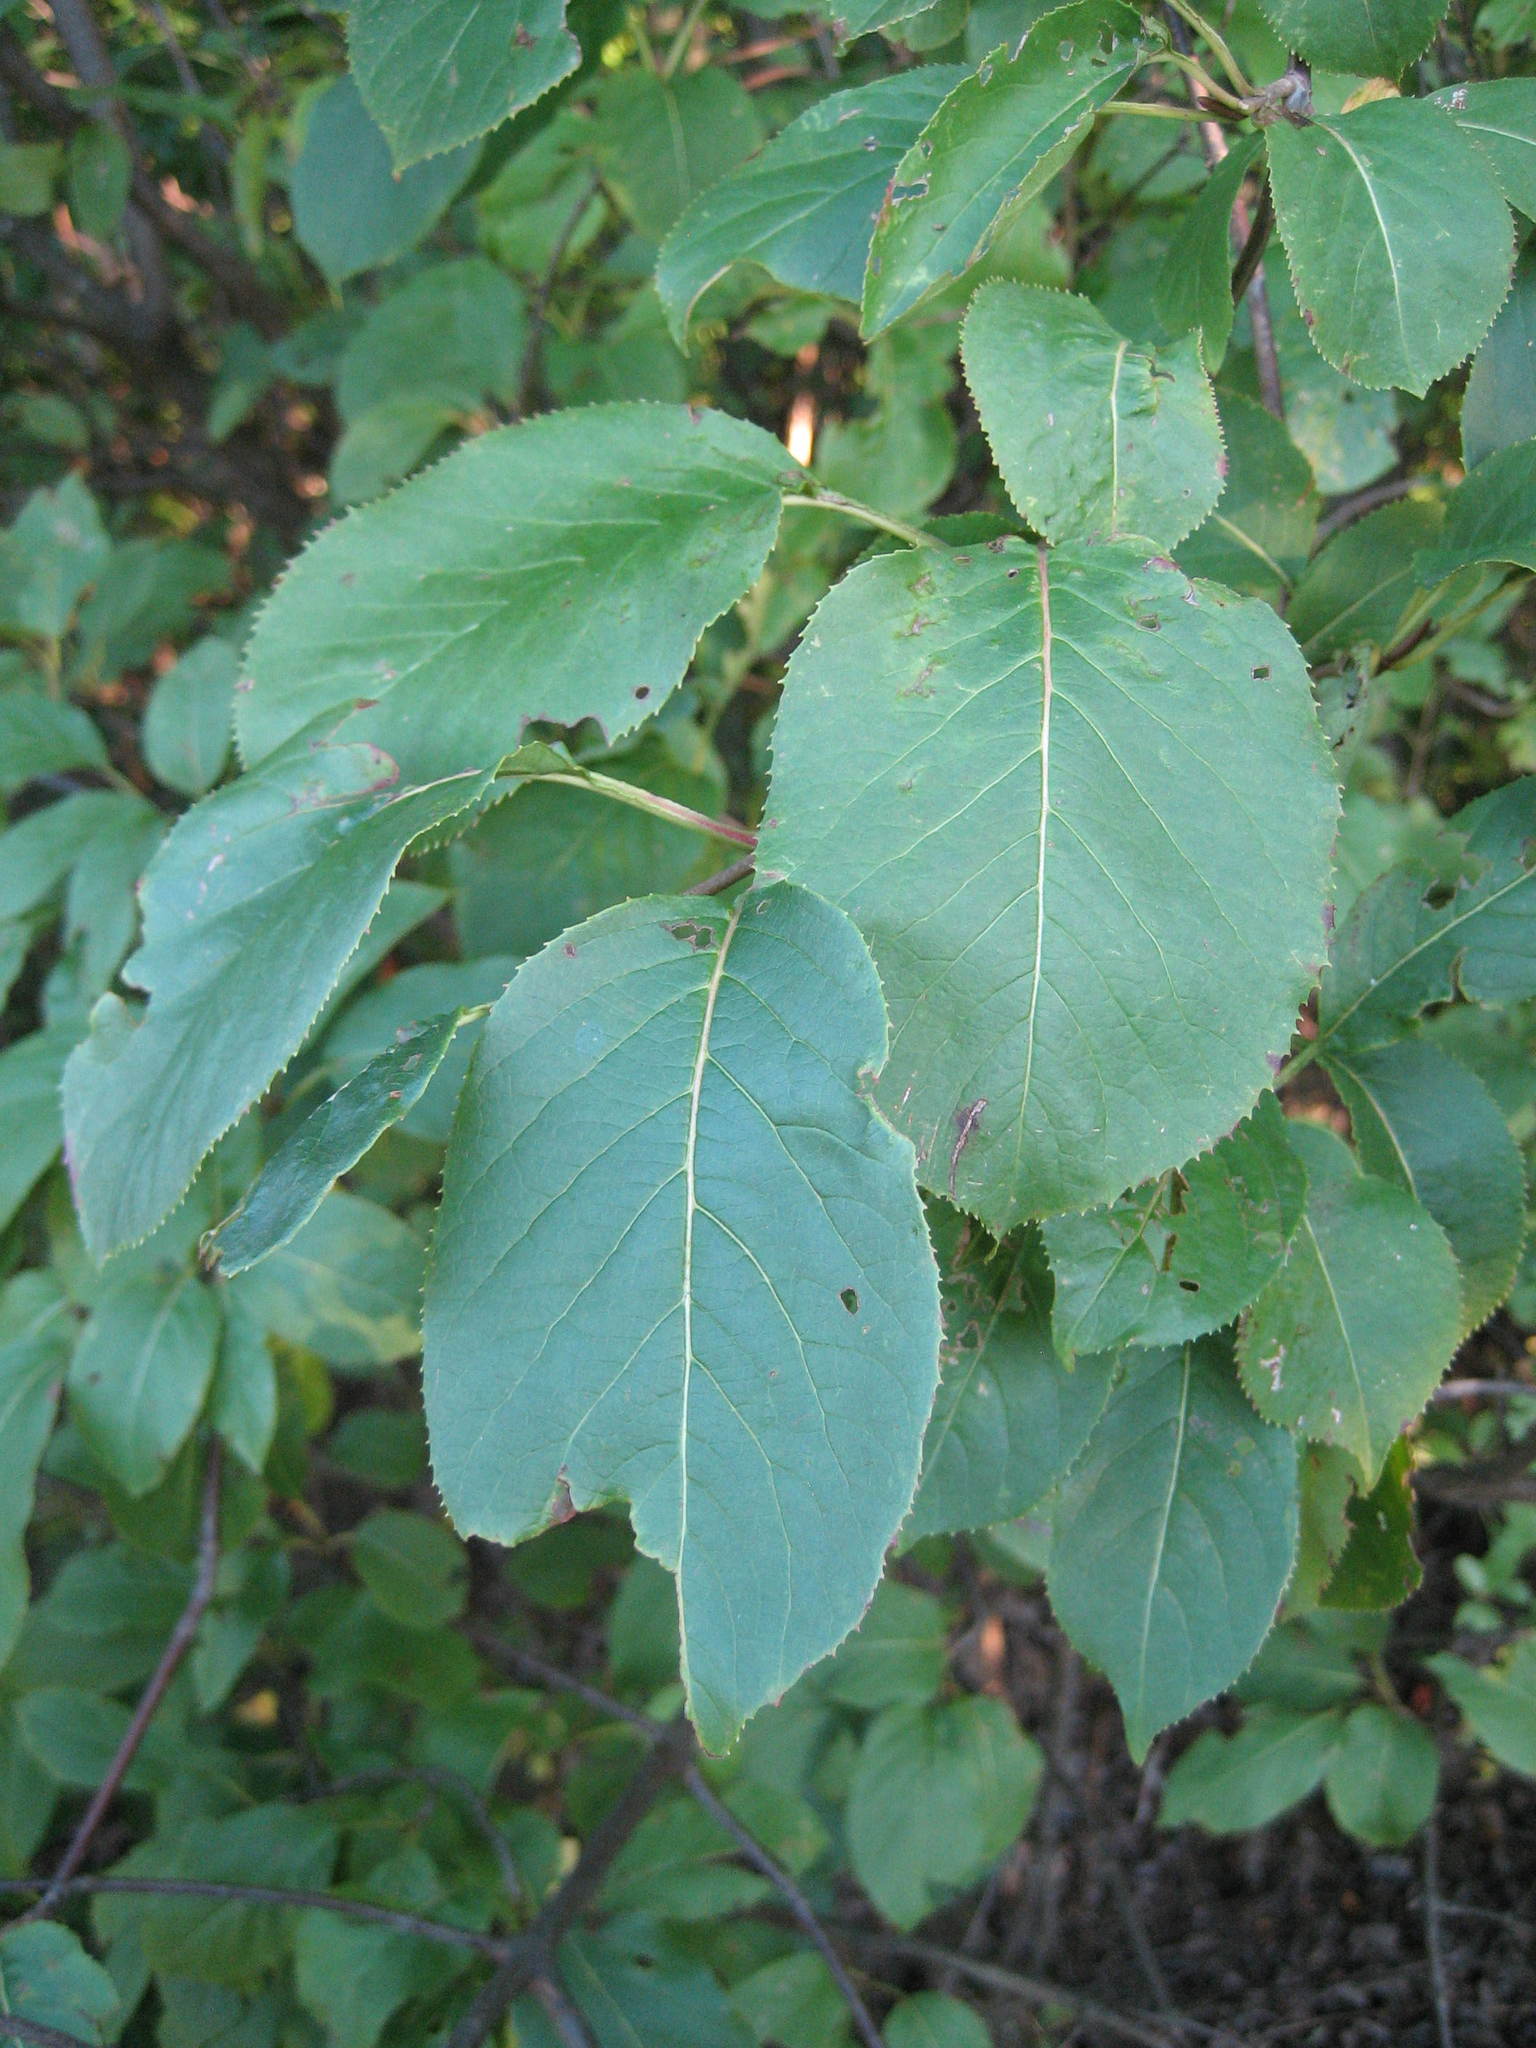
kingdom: Plantae
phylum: Tracheophyta
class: Magnoliopsida
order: Dipsacales
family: Viburnaceae
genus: Viburnum
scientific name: Viburnum lentago
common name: Black haw
